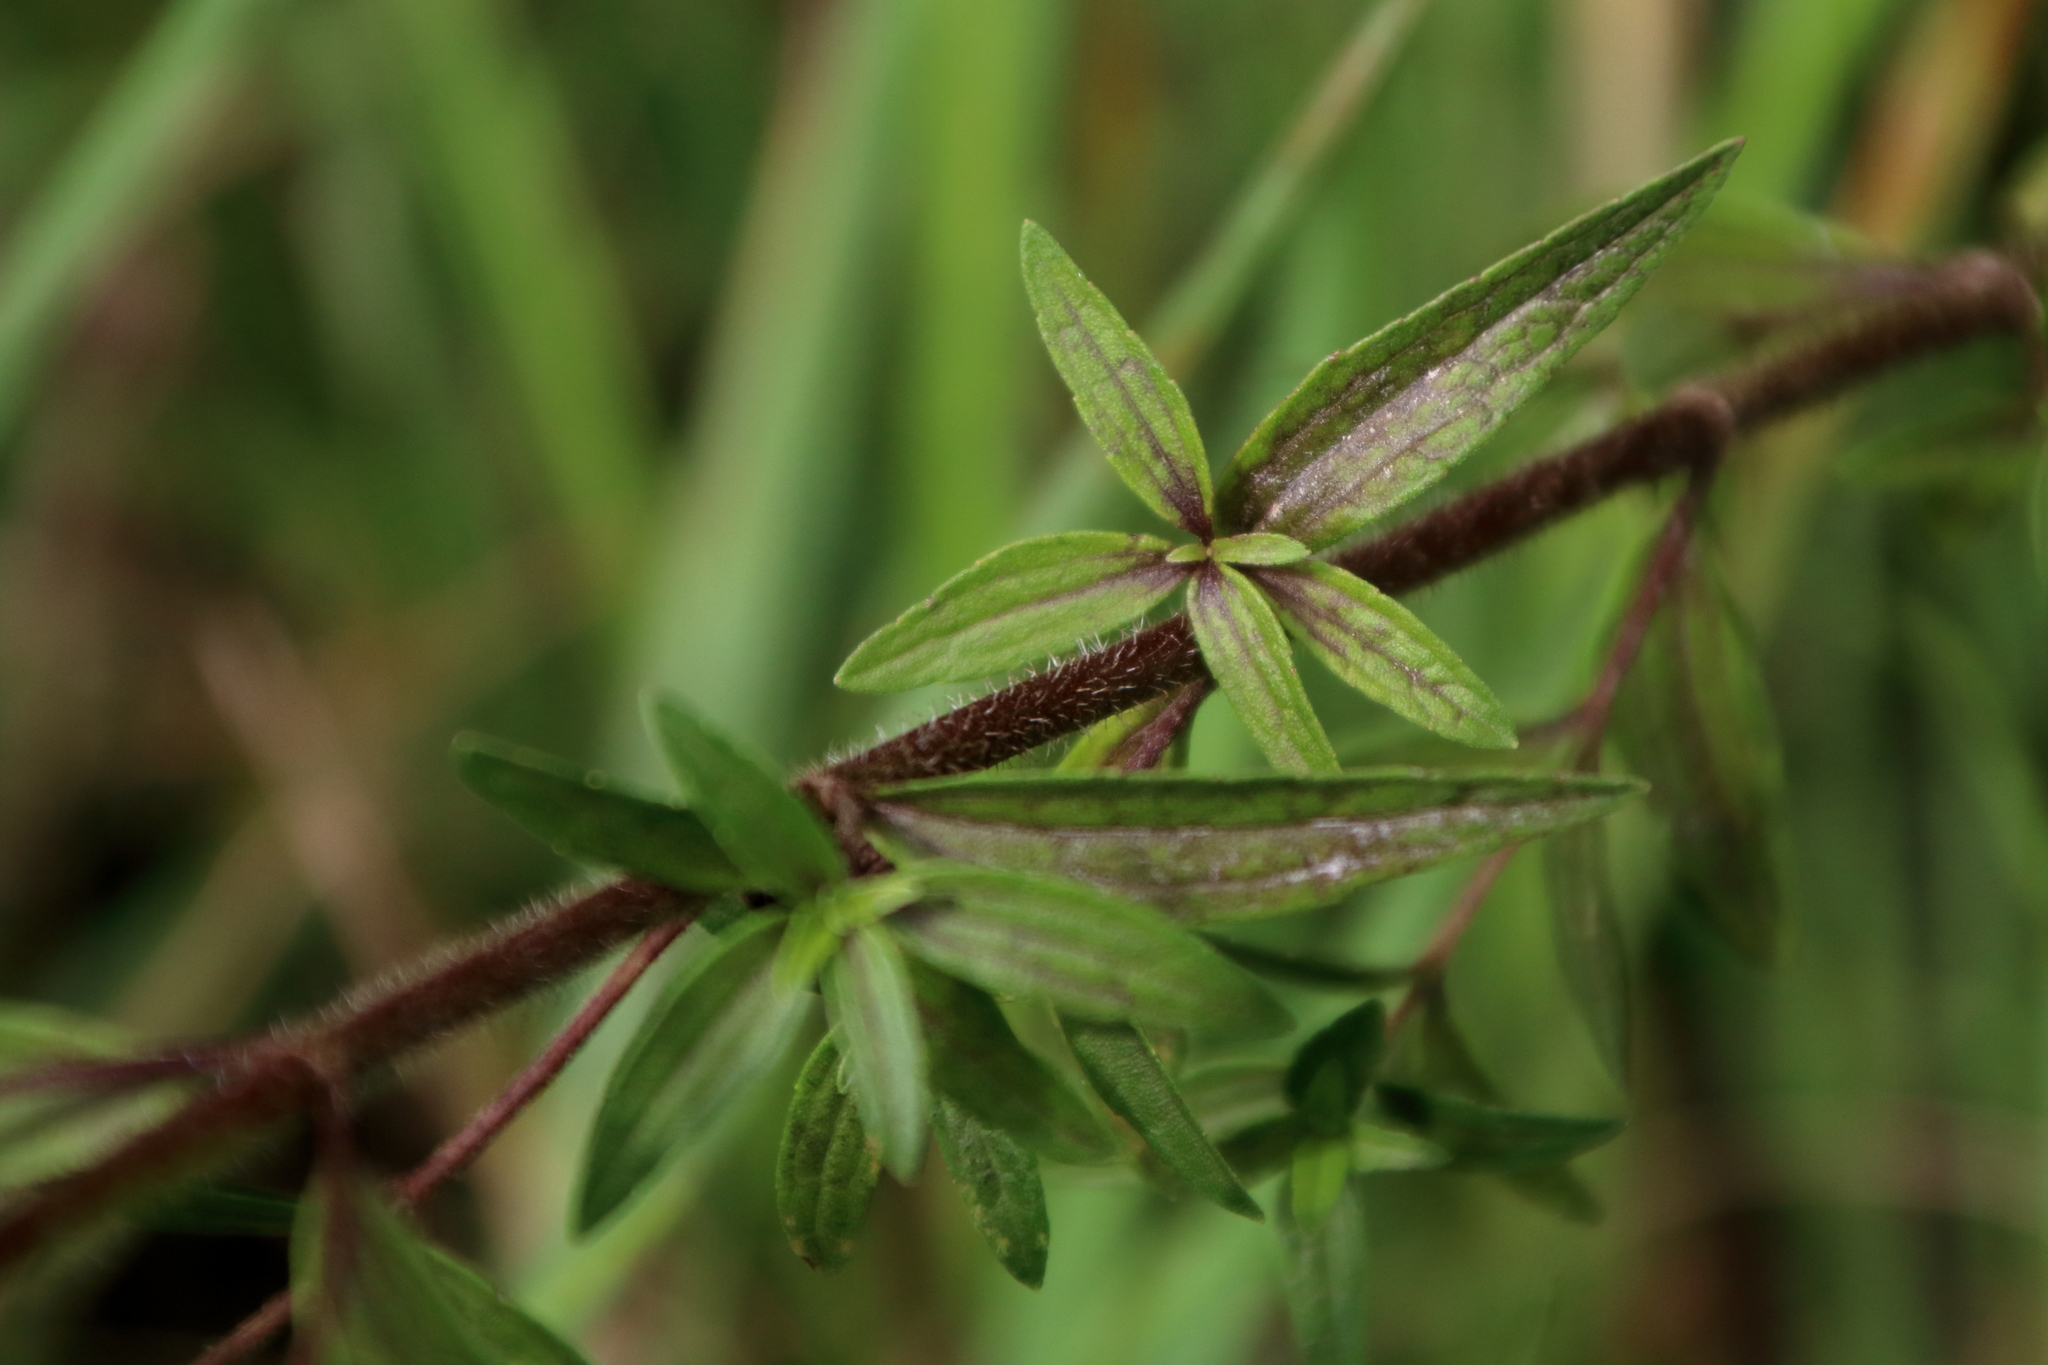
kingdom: Plantae
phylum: Tracheophyta
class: Magnoliopsida
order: Asterales
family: Asteraceae
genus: Chromolaena
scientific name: Chromolaena ivifolia
